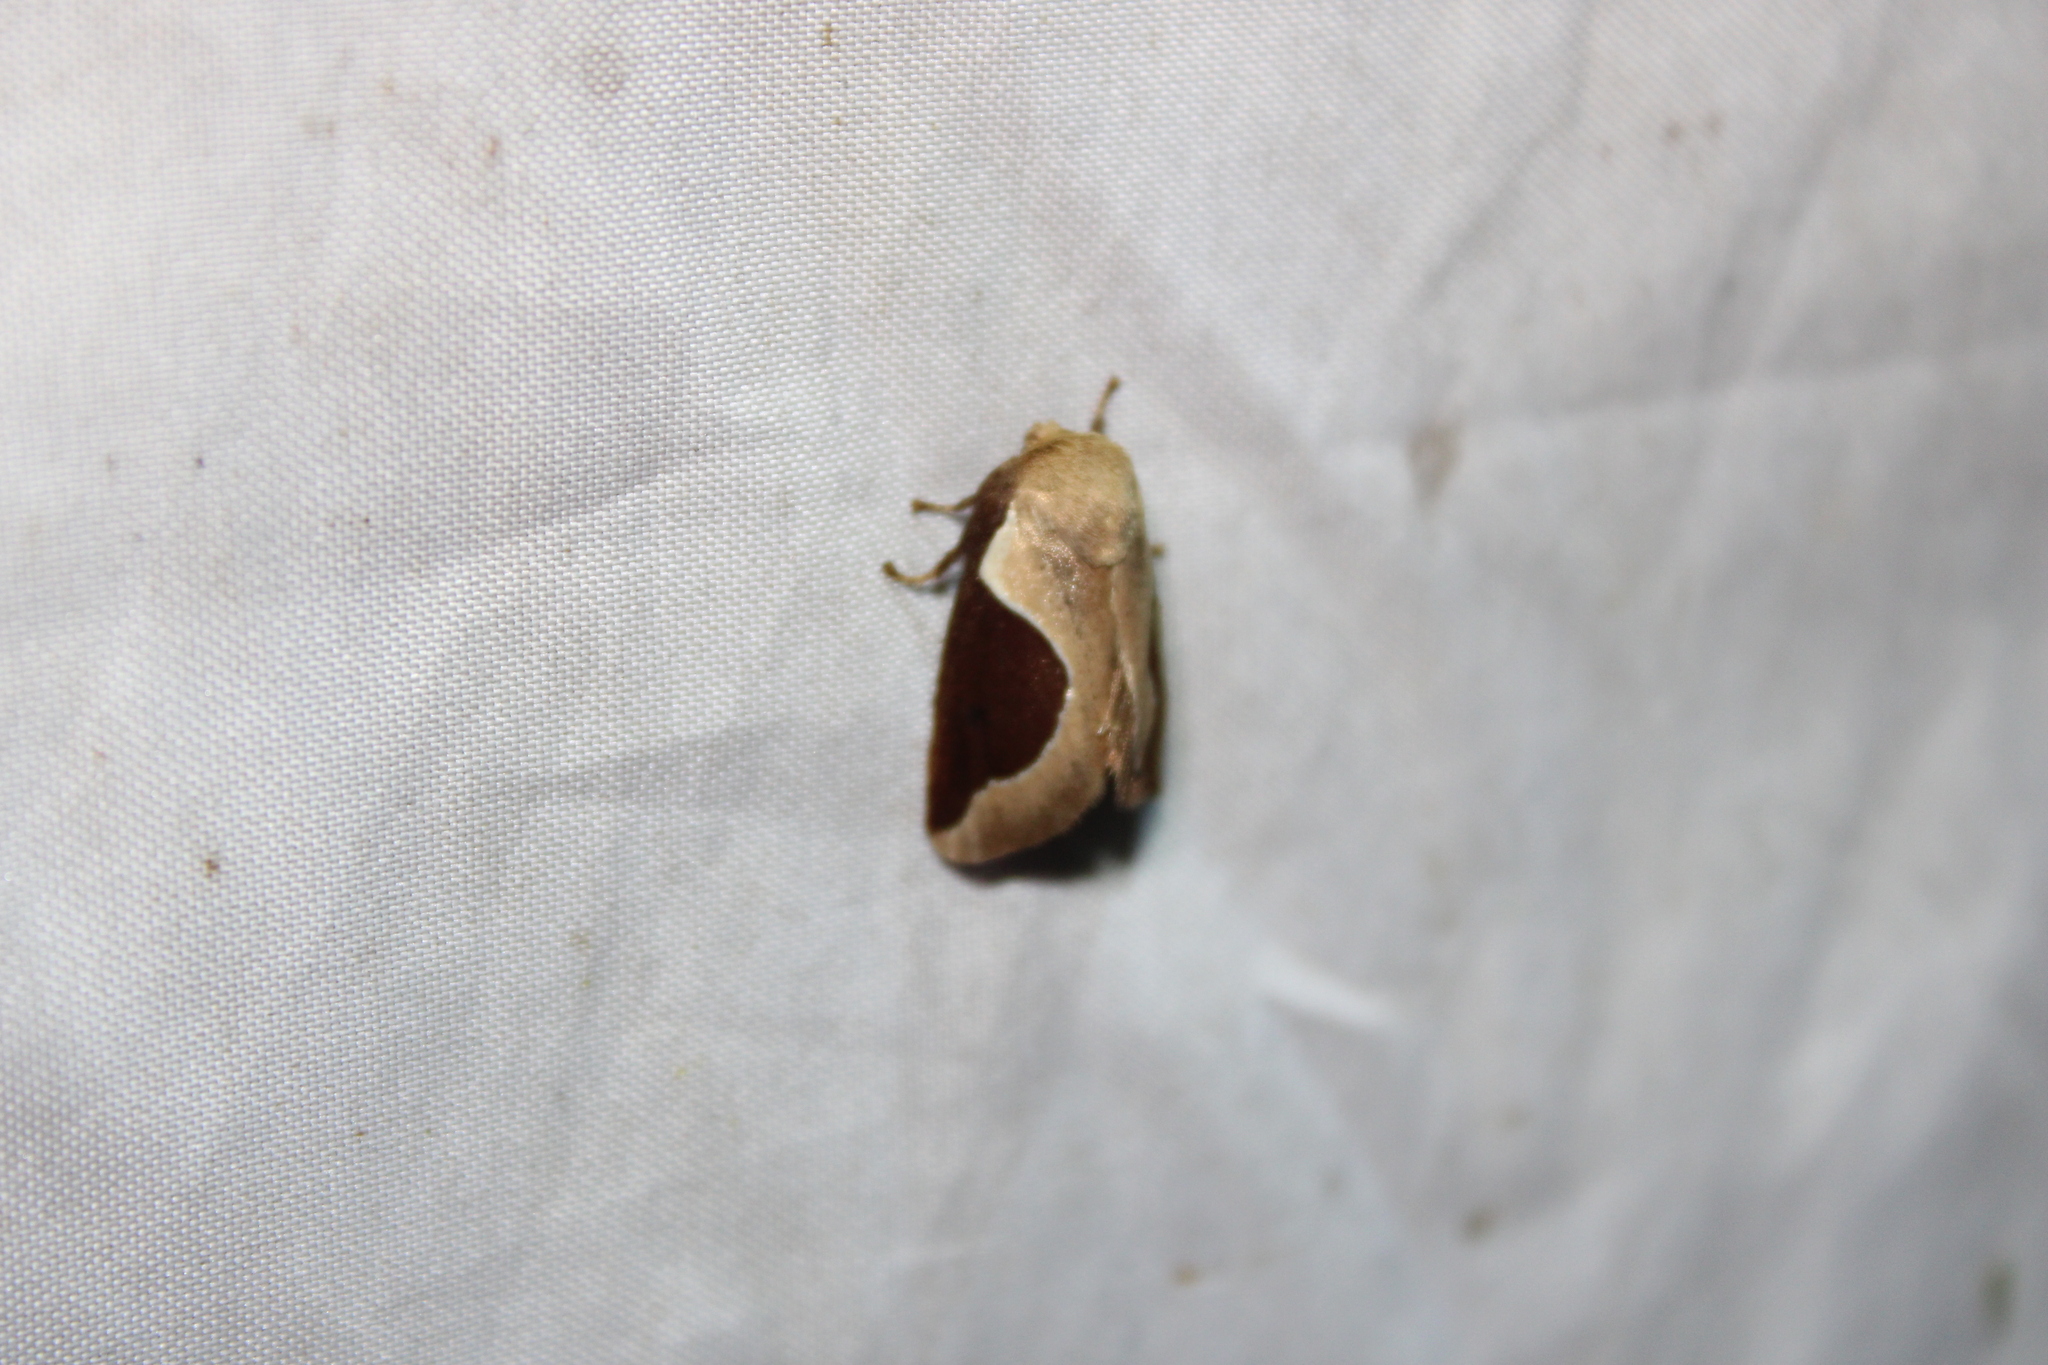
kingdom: Animalia
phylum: Arthropoda
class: Insecta
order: Lepidoptera
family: Limacodidae
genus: Prolimacodes
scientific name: Prolimacodes badia
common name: Skiff moth
